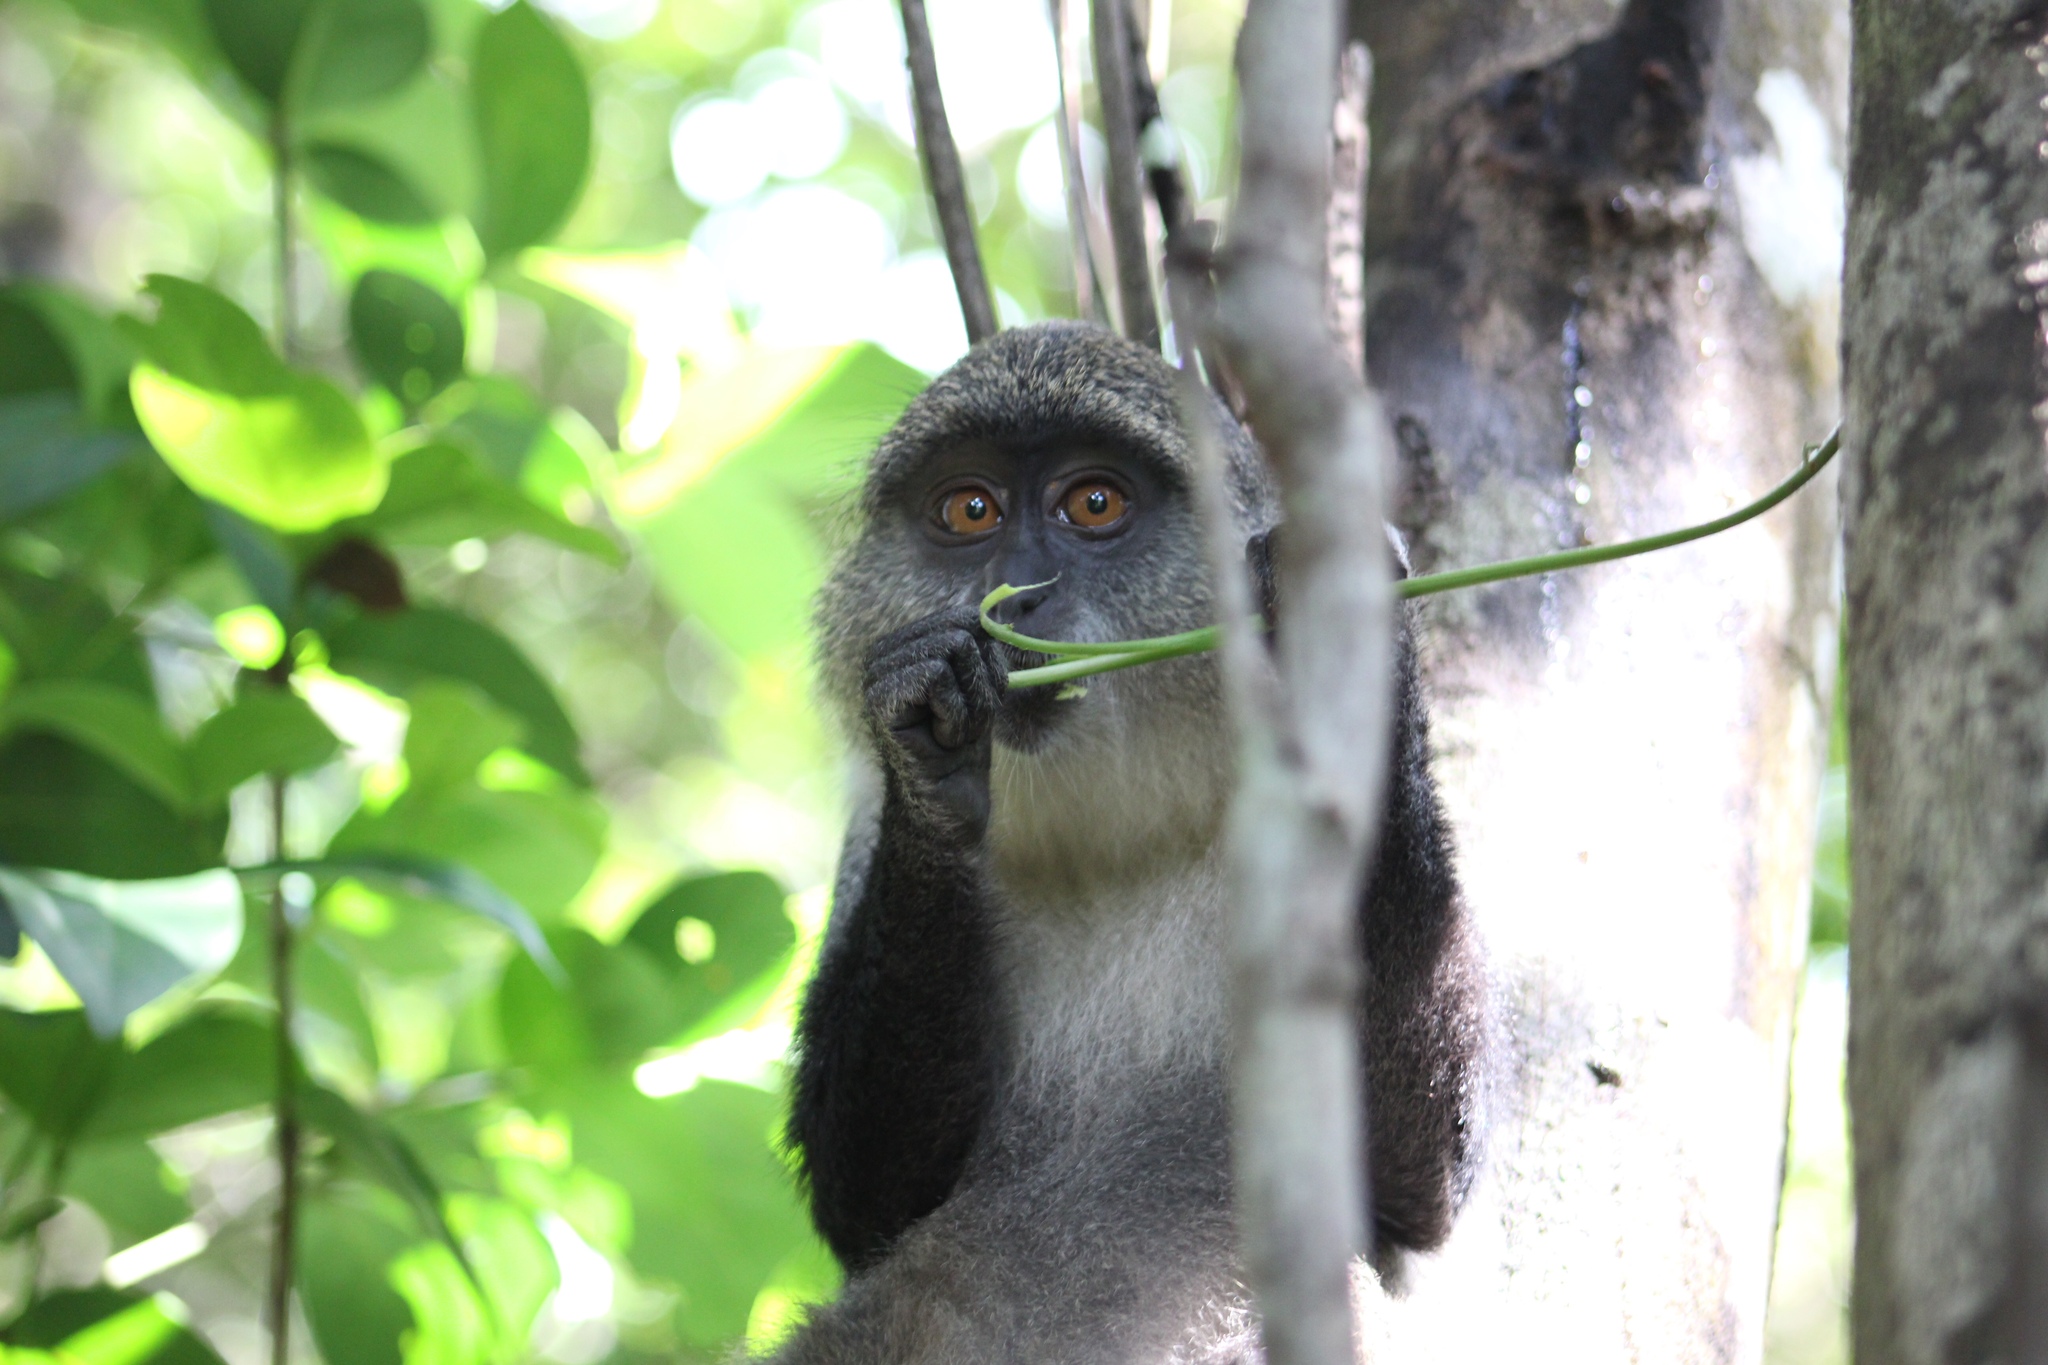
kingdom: Animalia
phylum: Chordata
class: Mammalia
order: Primates
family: Cercopithecidae
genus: Cercopithecus
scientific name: Cercopithecus mitis
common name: Blue monkey
